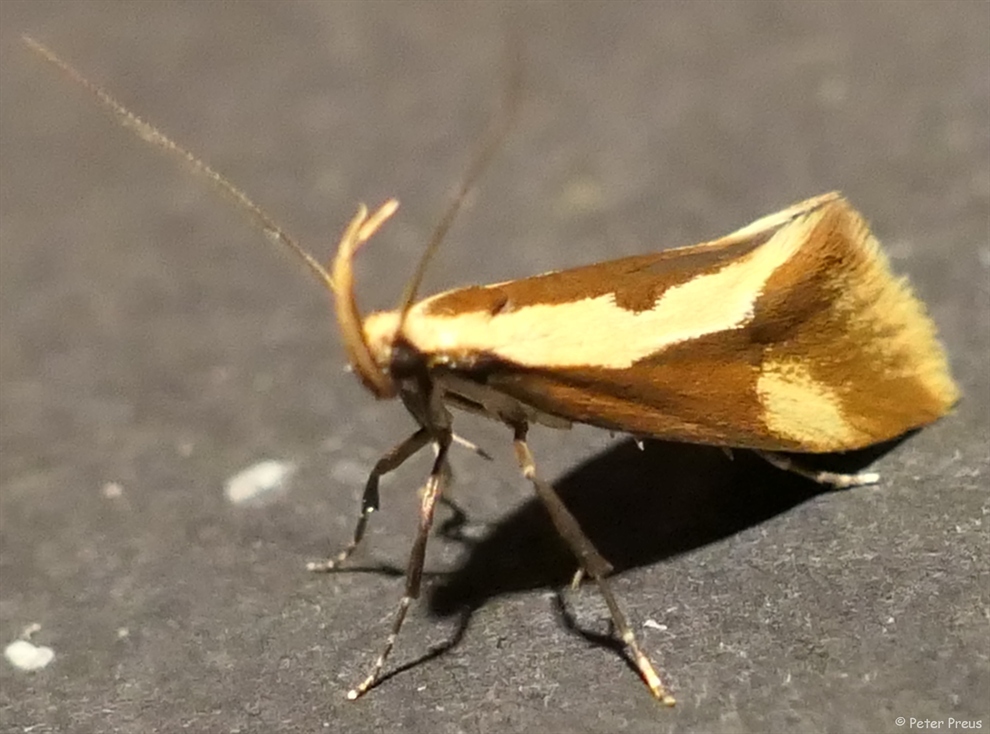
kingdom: Animalia
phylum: Arthropoda
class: Insecta
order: Lepidoptera
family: Oecophoridae
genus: Harpella
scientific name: Harpella forficella
